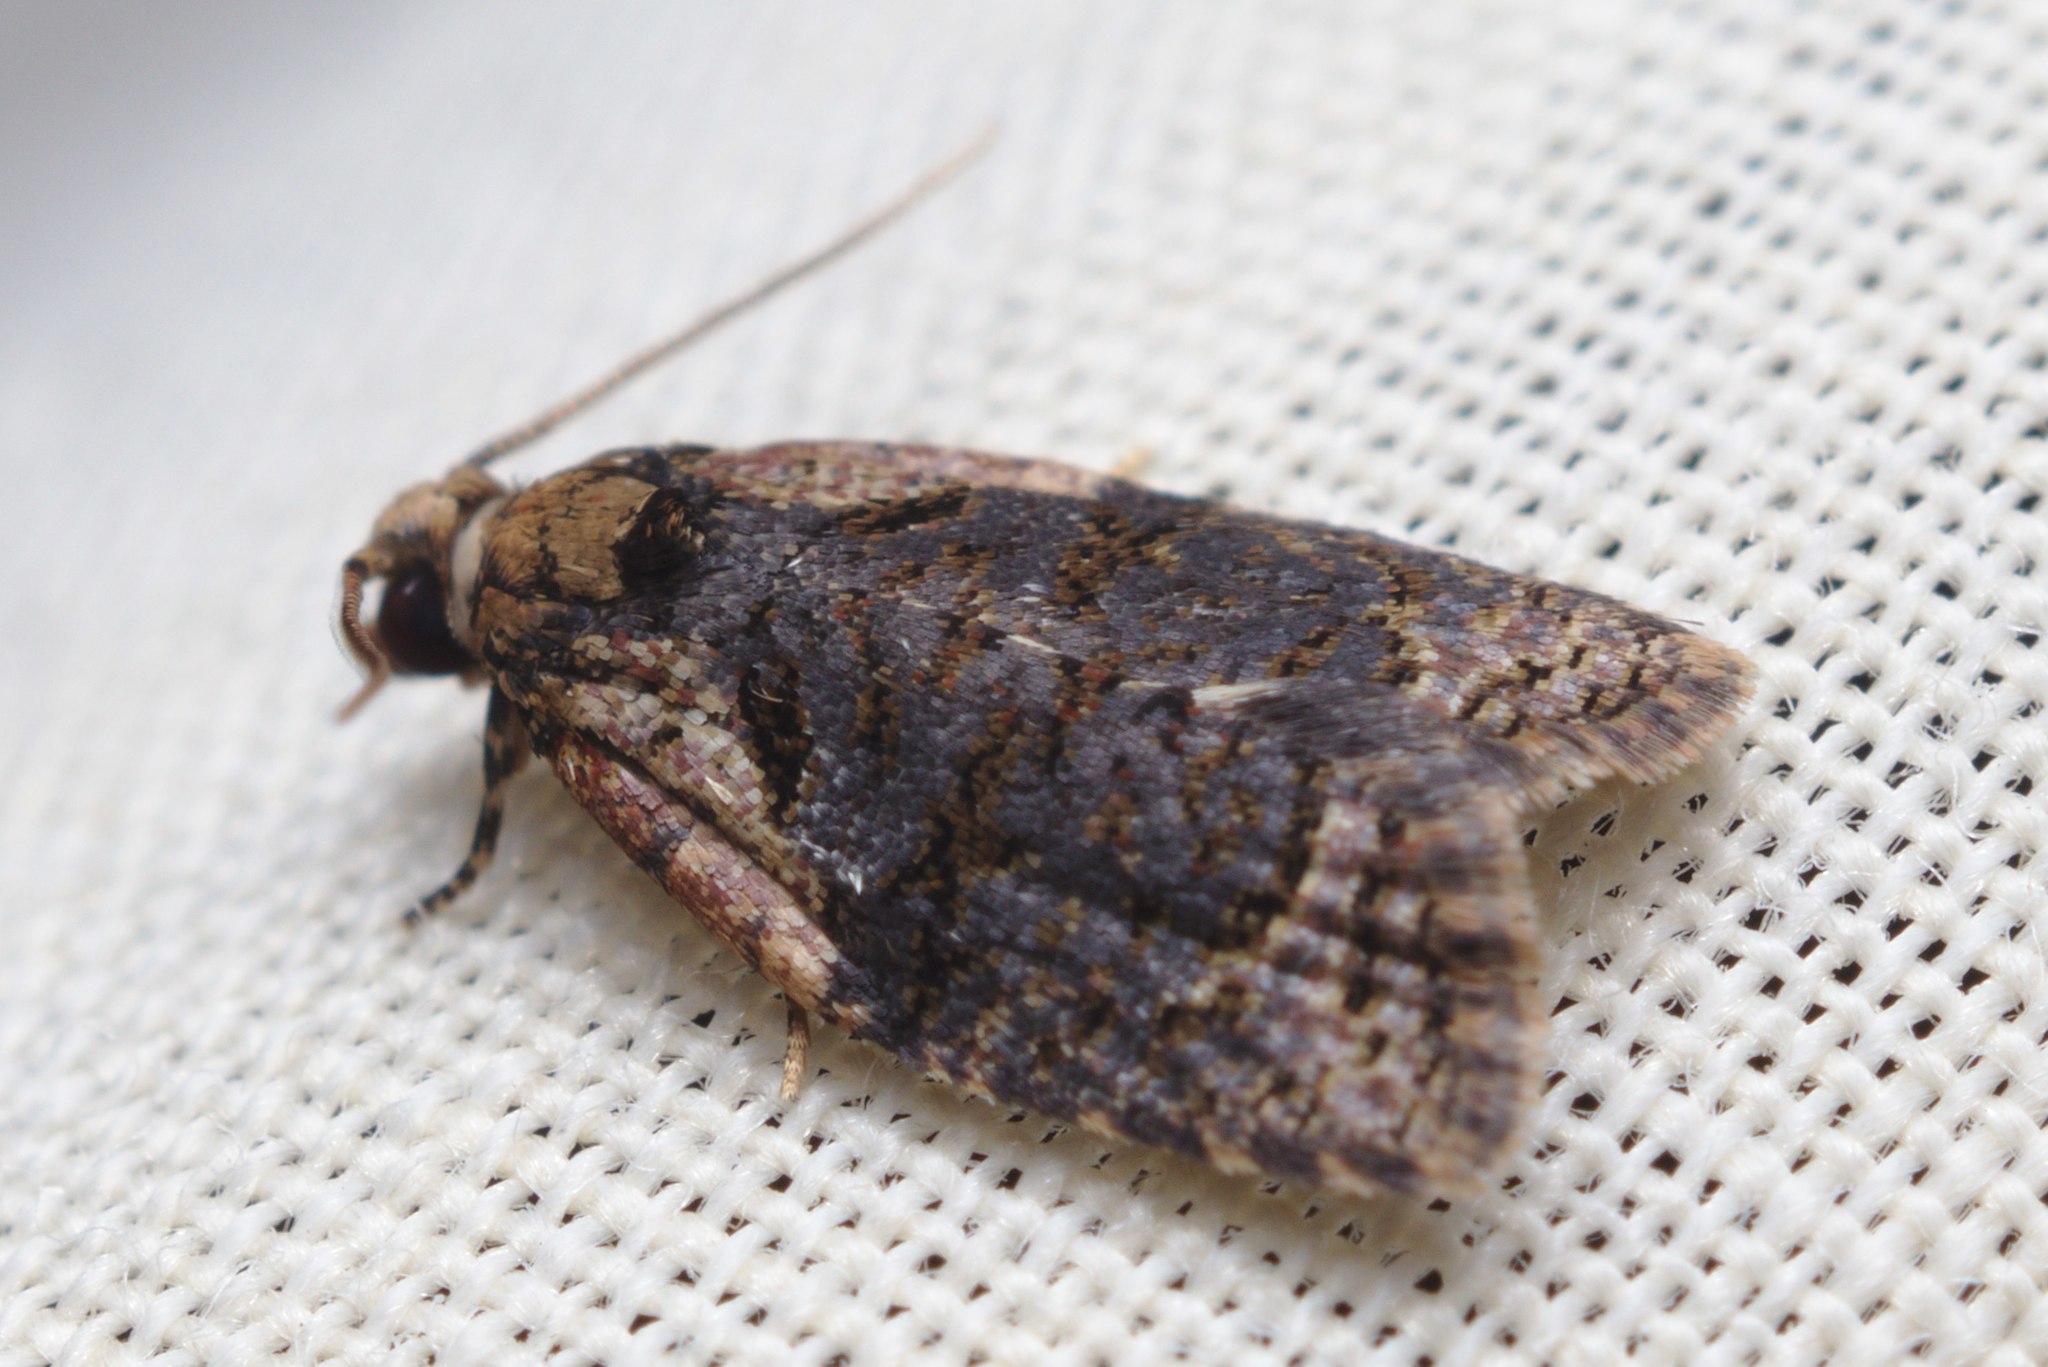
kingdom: Animalia
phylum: Arthropoda
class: Insecta
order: Lepidoptera
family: Tortricidae
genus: Capua
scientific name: Capua intractana
